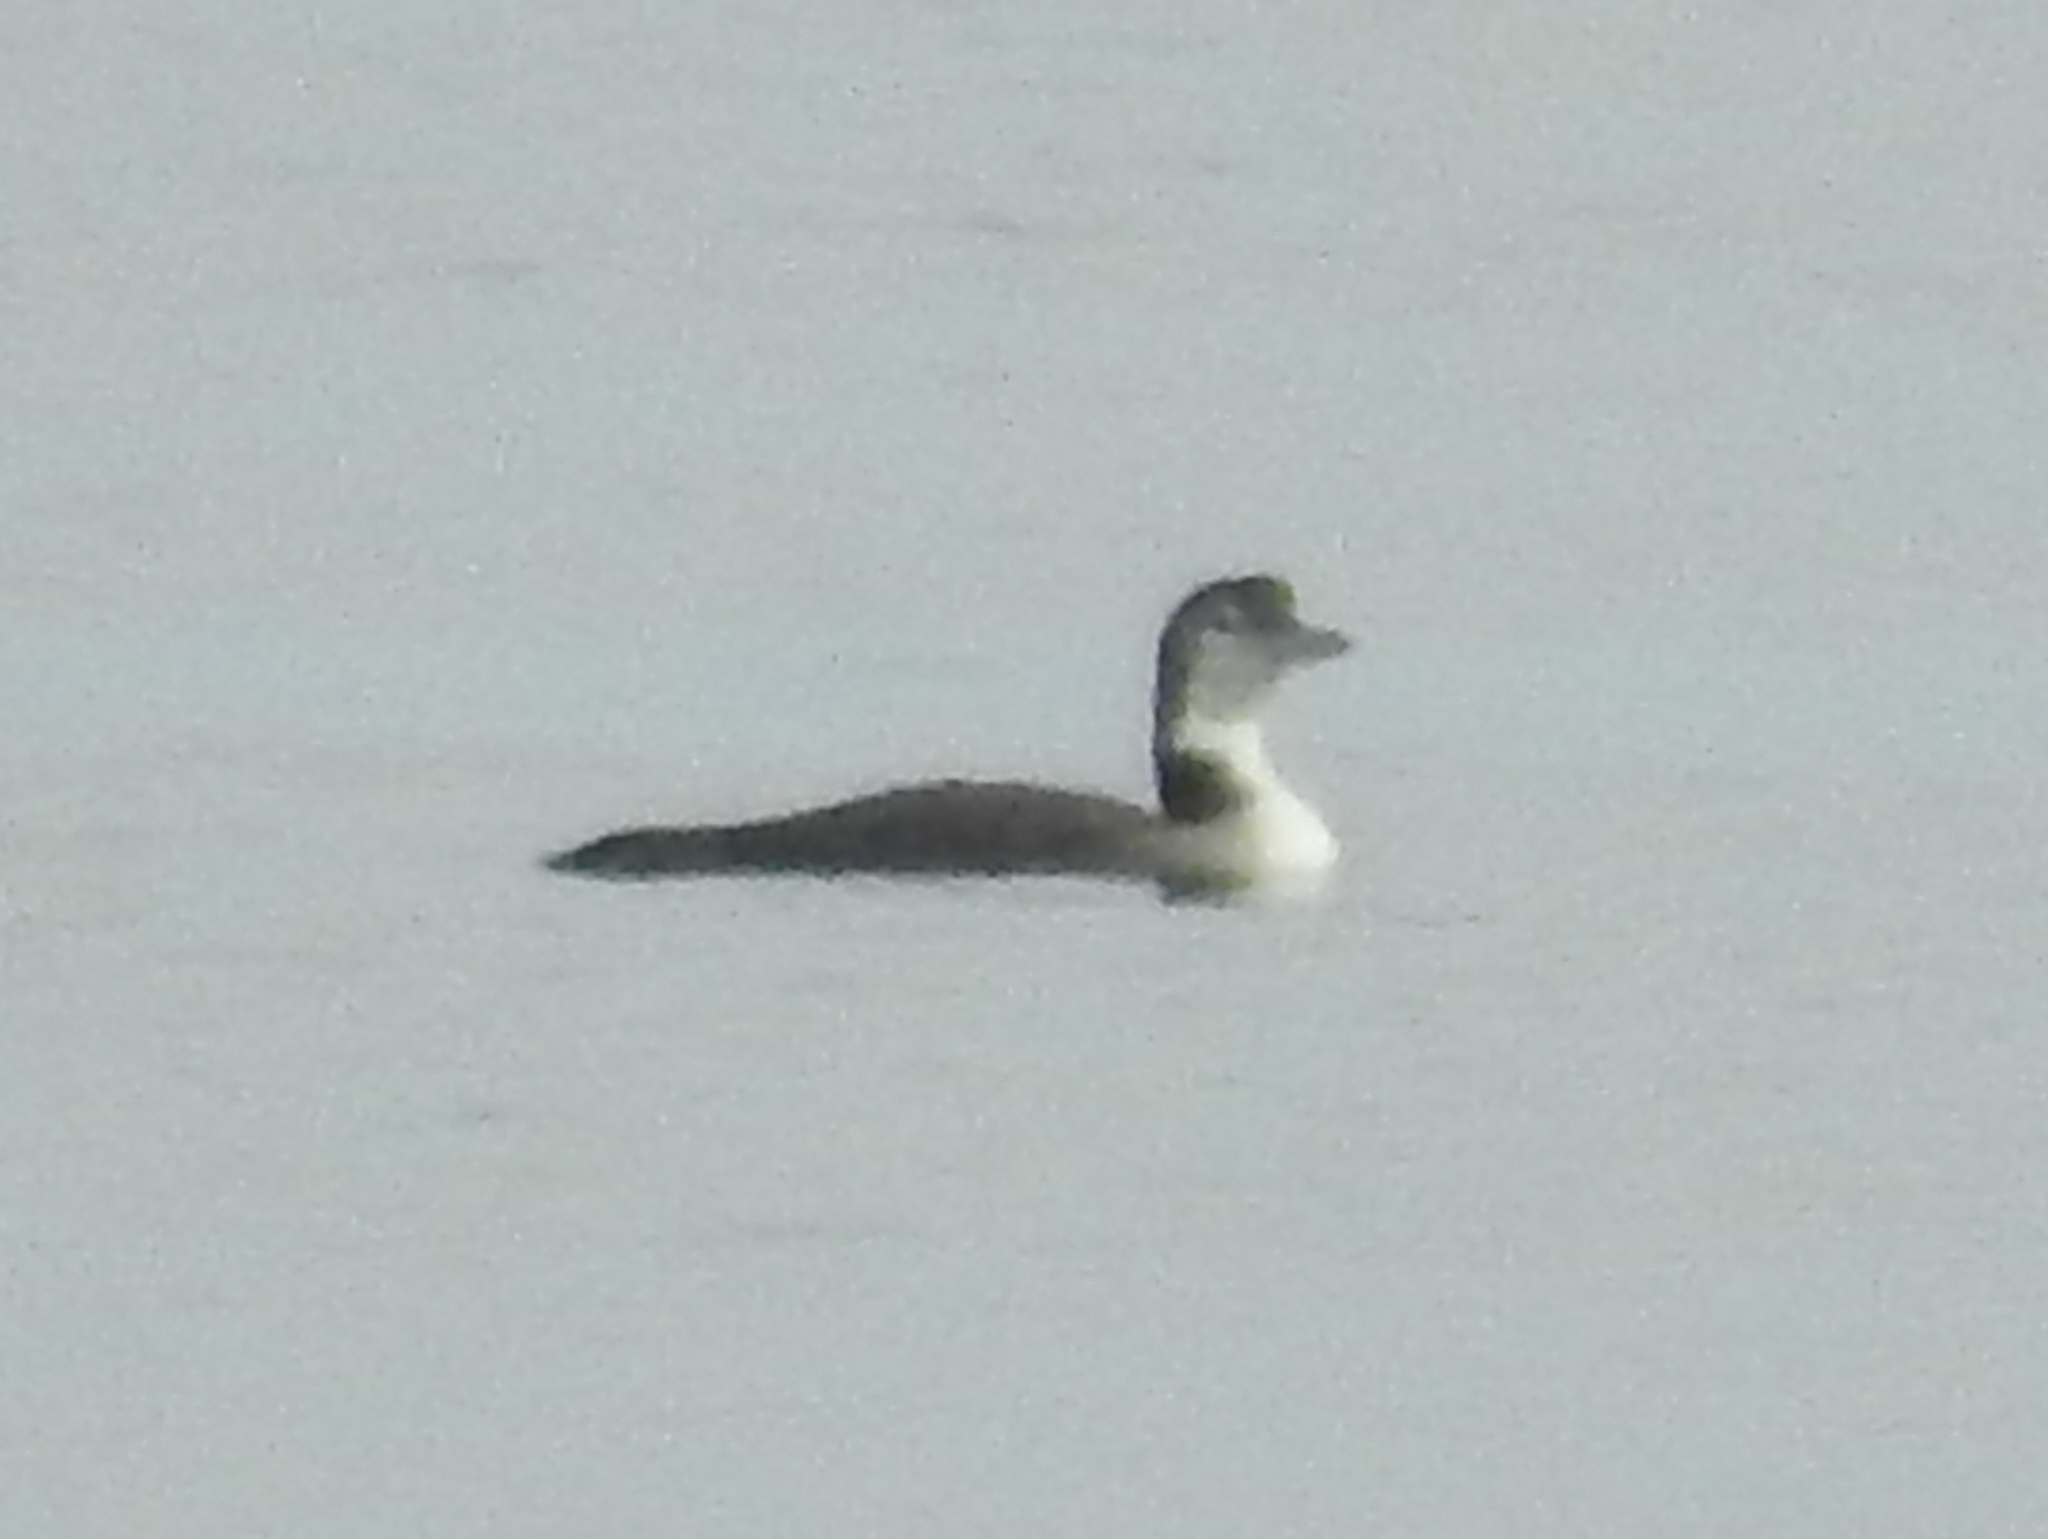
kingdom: Animalia
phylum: Chordata
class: Aves
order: Gaviiformes
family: Gaviidae
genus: Gavia
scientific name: Gavia immer
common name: Common loon
